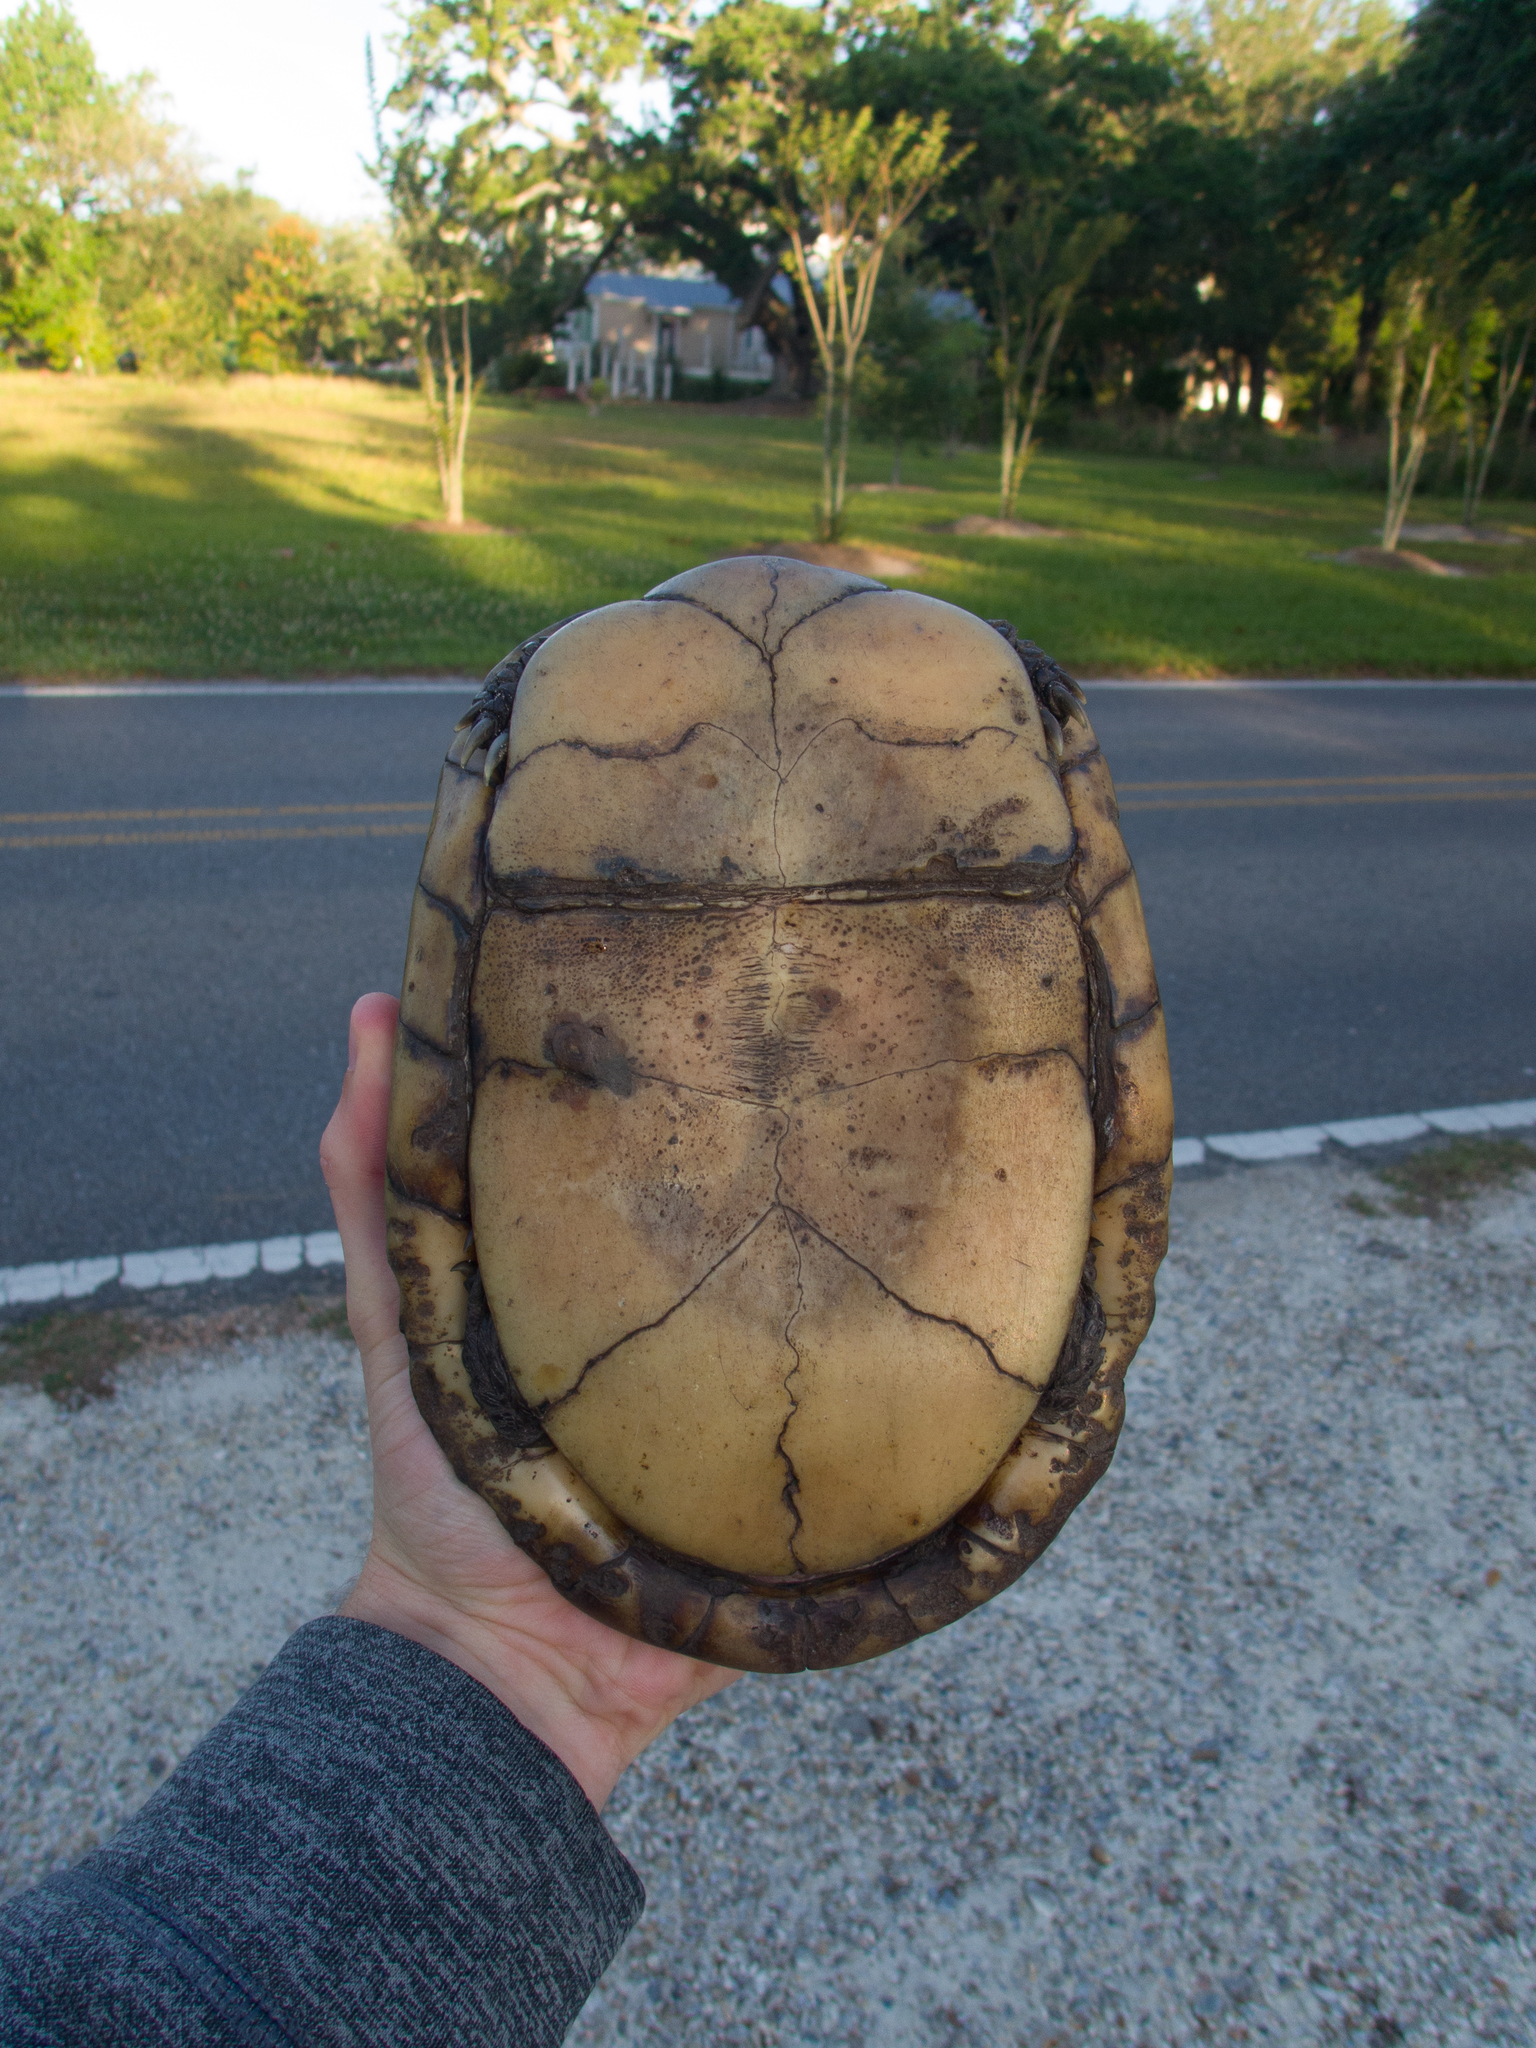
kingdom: Animalia
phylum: Chordata
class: Testudines
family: Emydidae
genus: Terrapene
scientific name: Terrapene carolina
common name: Common box turtle
